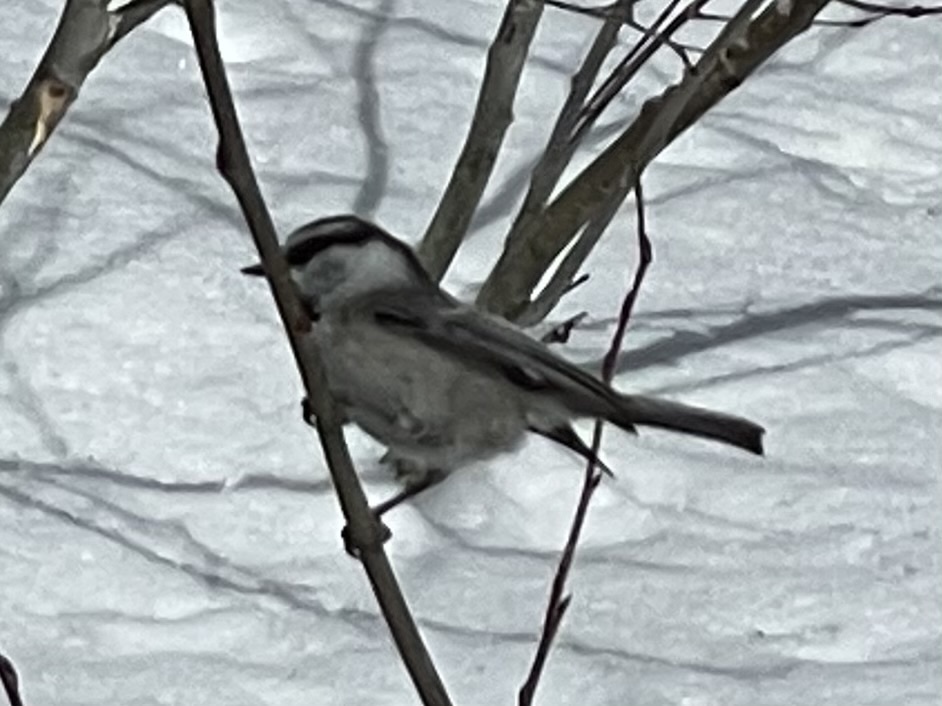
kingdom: Animalia
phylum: Chordata
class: Aves
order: Passeriformes
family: Paridae
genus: Poecile
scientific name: Poecile gambeli
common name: Mountain chickadee
